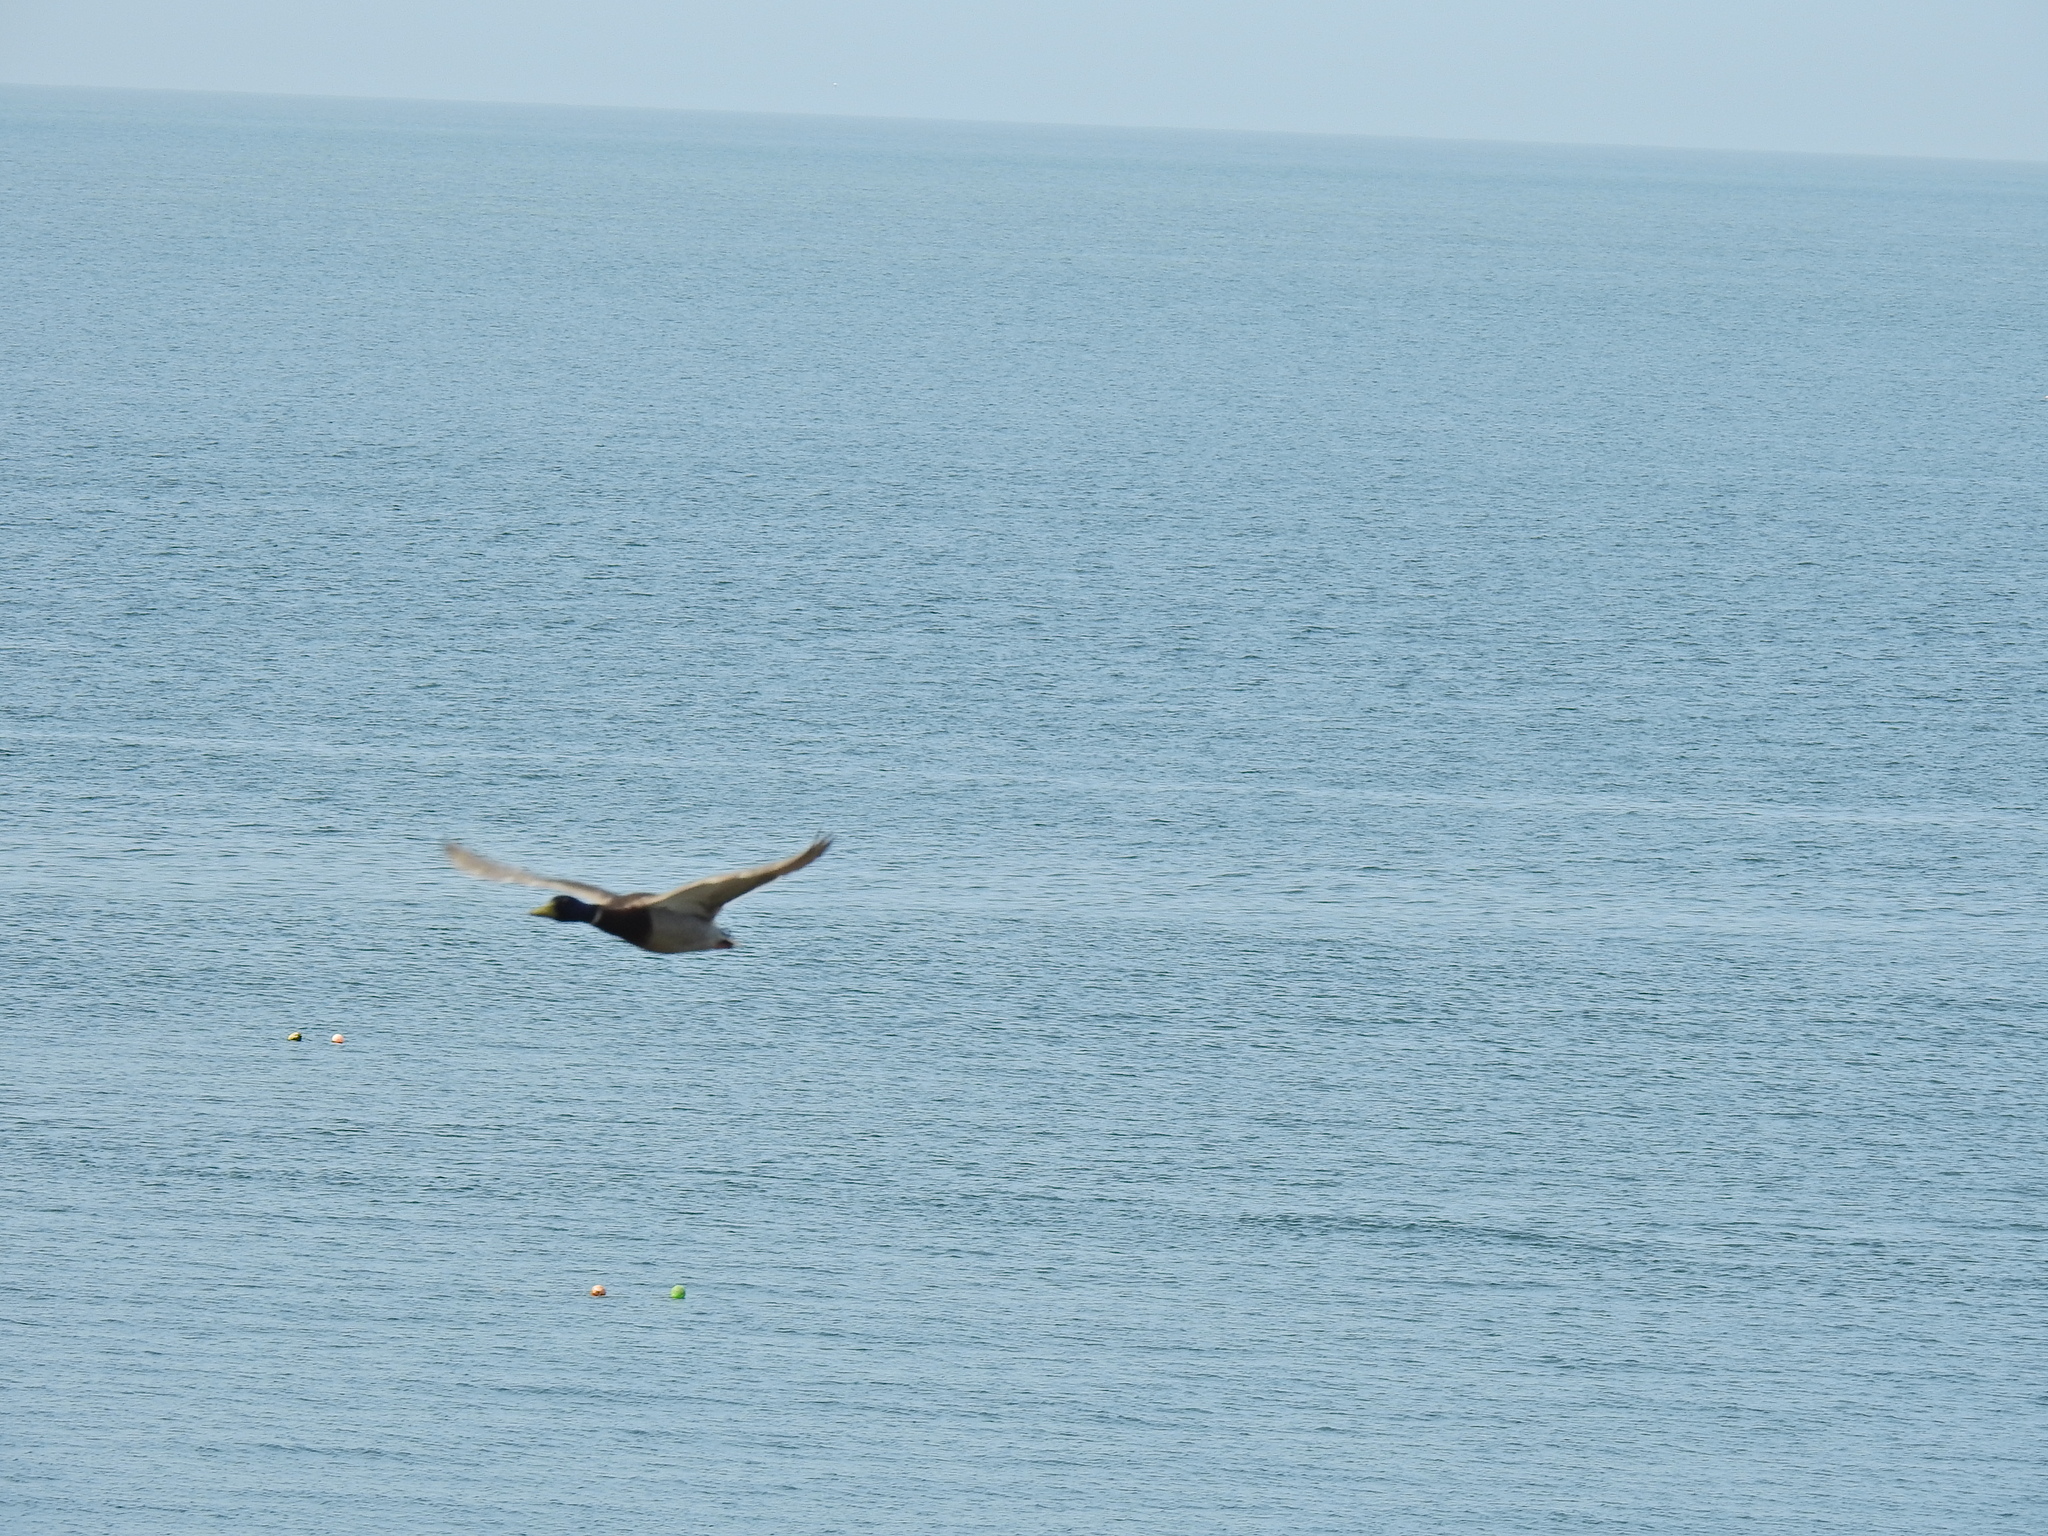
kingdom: Animalia
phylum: Chordata
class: Aves
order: Anseriformes
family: Anatidae
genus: Anas
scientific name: Anas platyrhynchos
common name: Mallard
